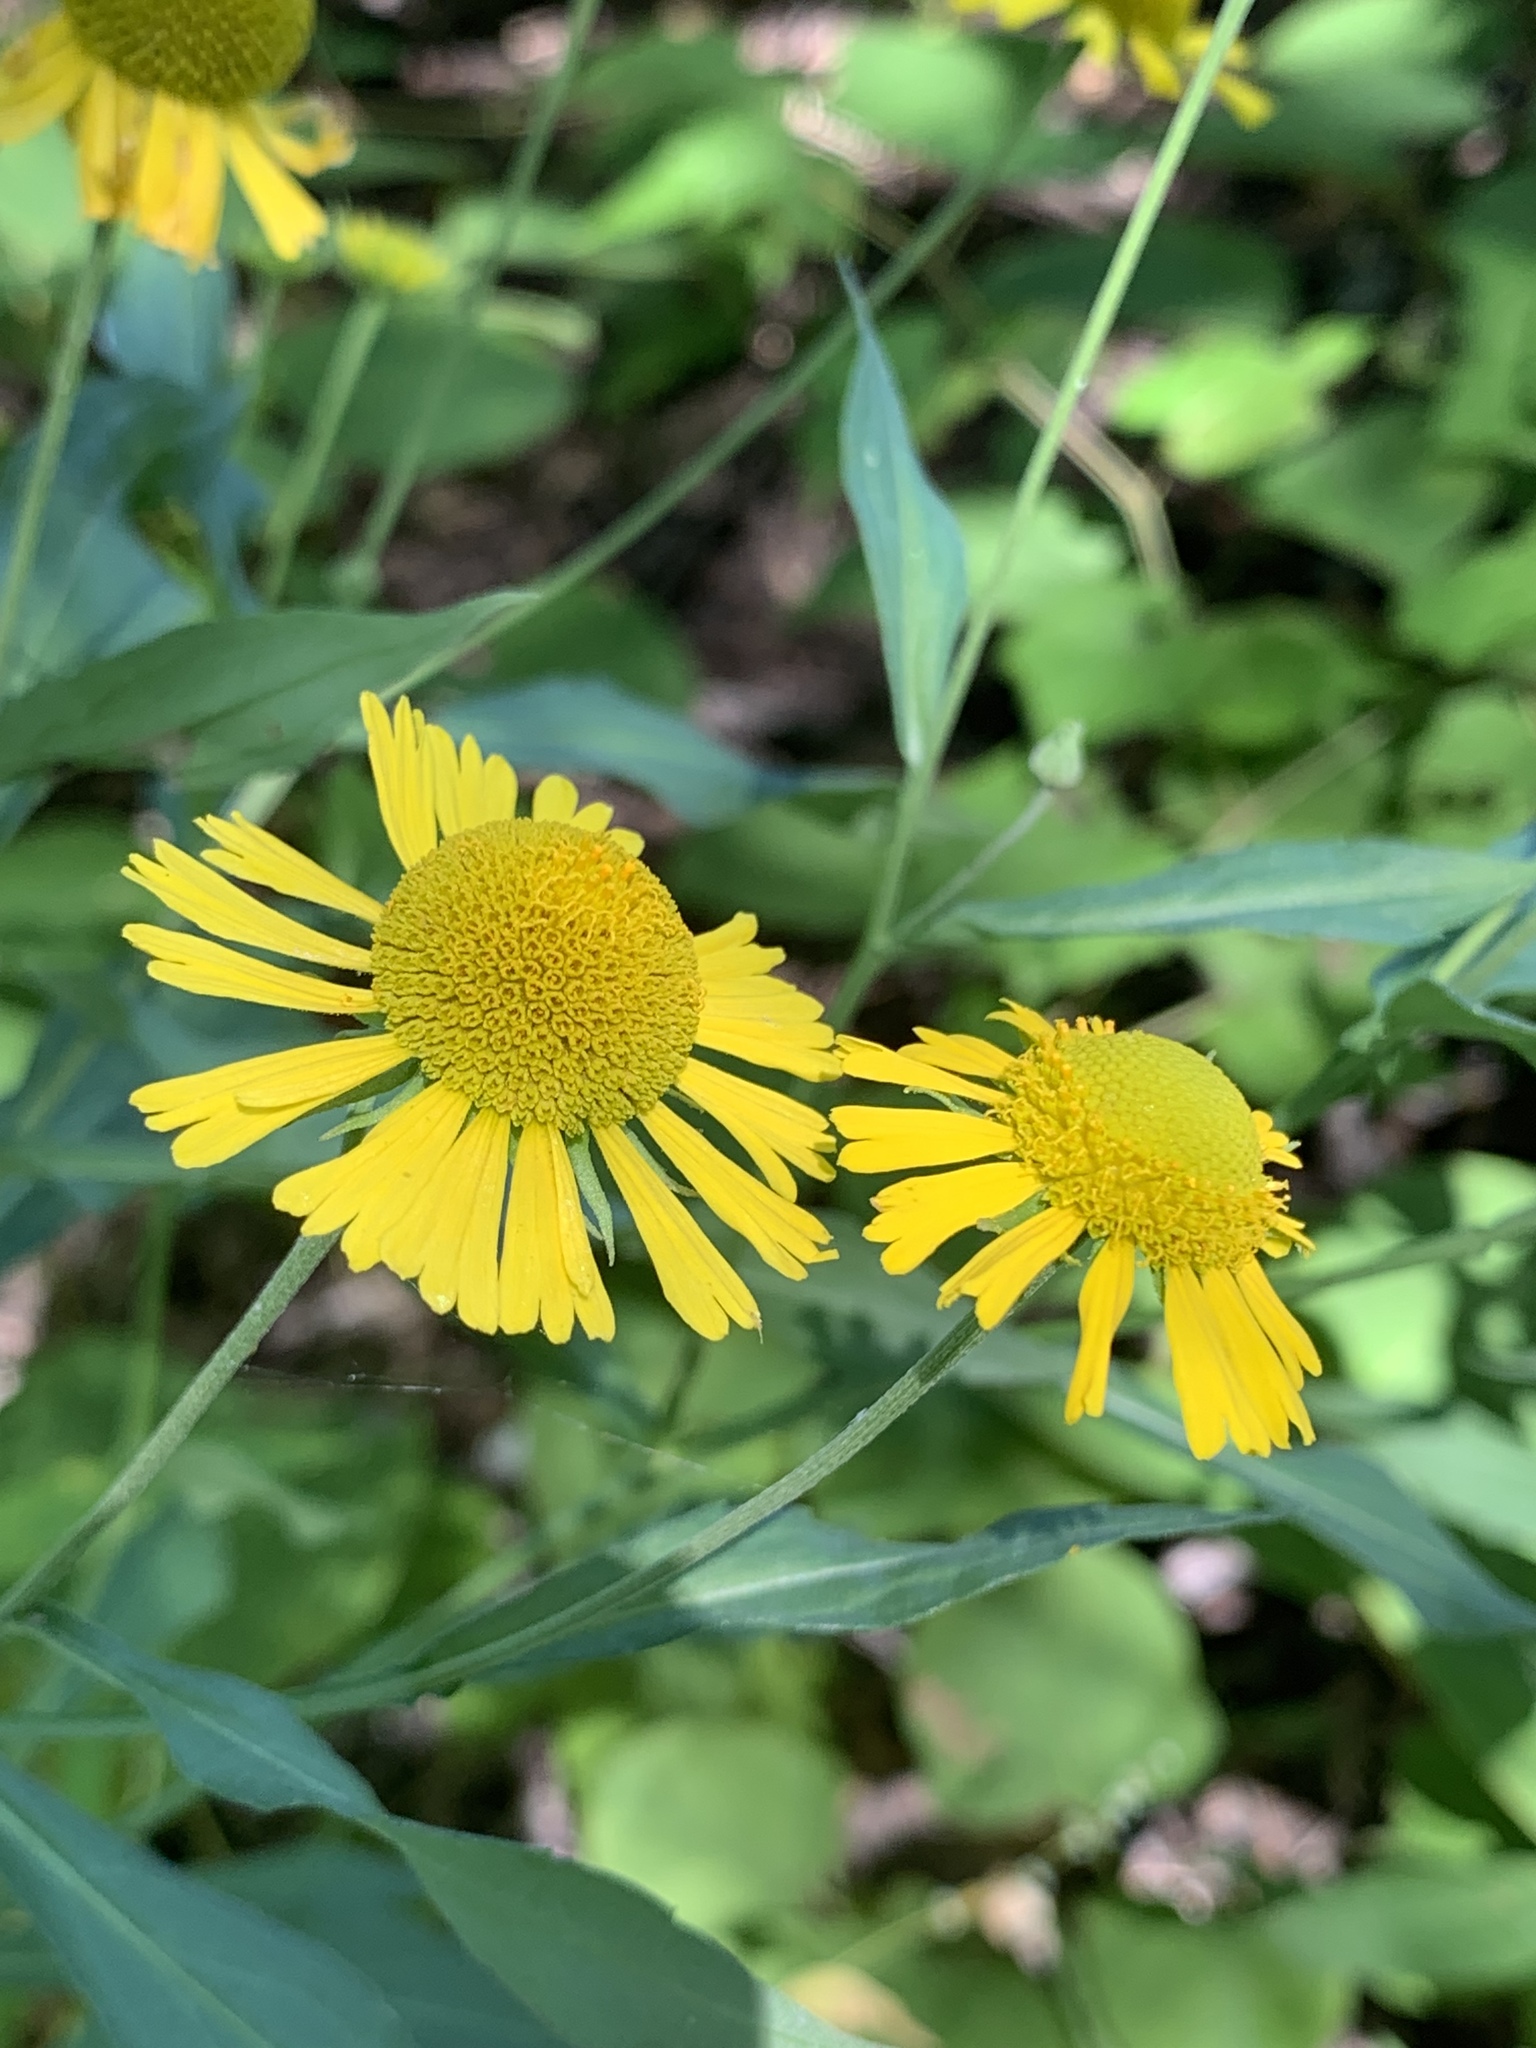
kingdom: Plantae
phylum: Tracheophyta
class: Magnoliopsida
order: Asterales
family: Asteraceae
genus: Helenium
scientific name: Helenium autumnale
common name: Sneezeweed
